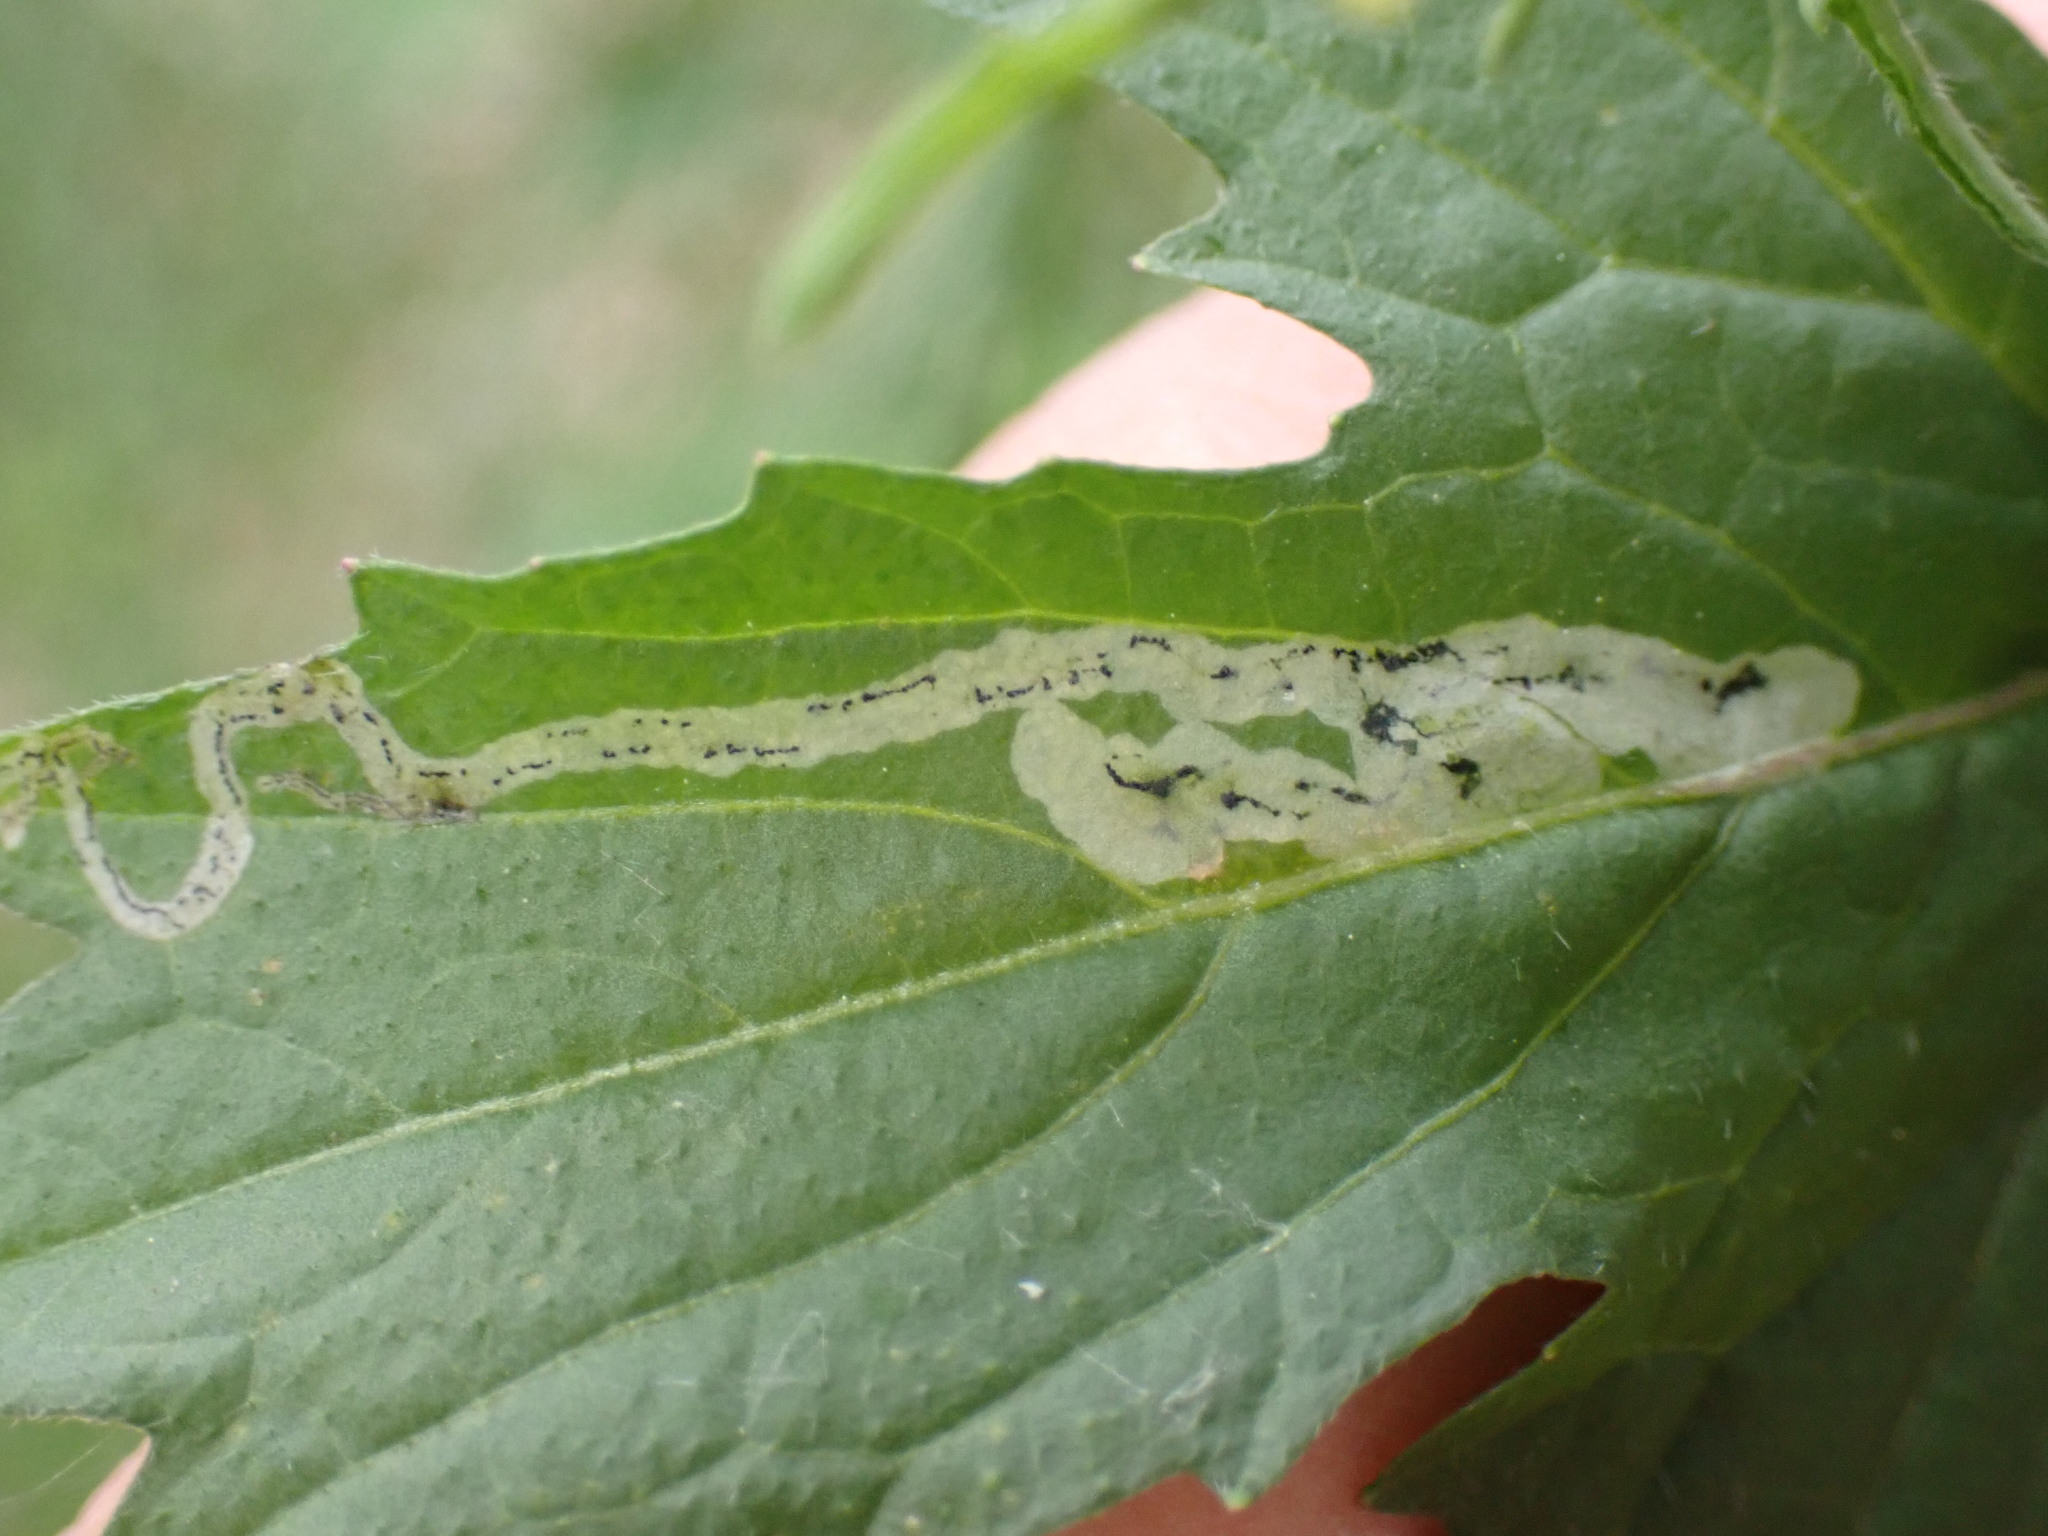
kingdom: Animalia
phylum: Arthropoda
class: Insecta
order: Diptera
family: Agromyzidae
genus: Liriomyza
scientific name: Liriomyza brassicae
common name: Serpentine leaf miner
